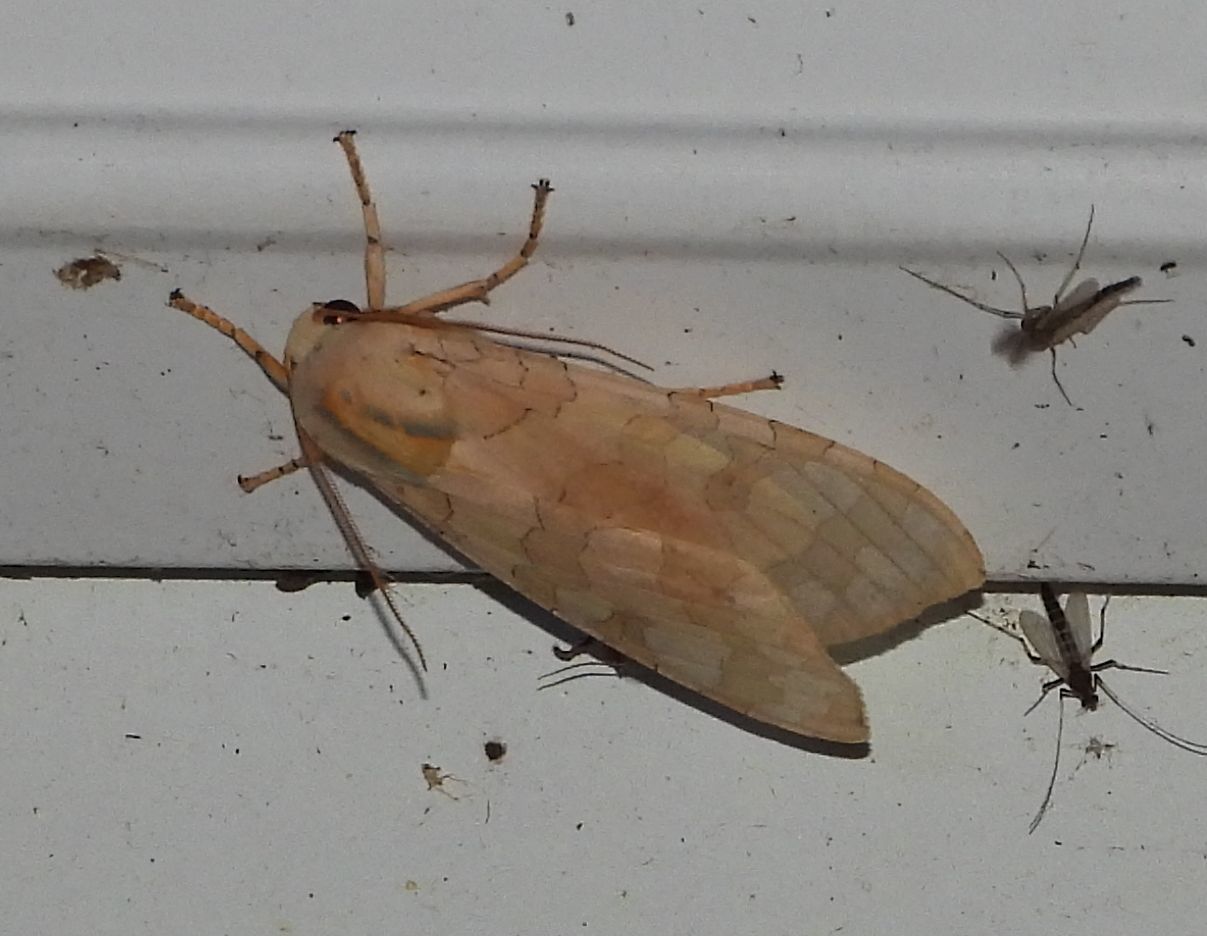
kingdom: Animalia
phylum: Arthropoda
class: Insecta
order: Lepidoptera
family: Erebidae
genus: Halysidota
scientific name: Halysidota tessellaris
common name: Banded tussock moth
